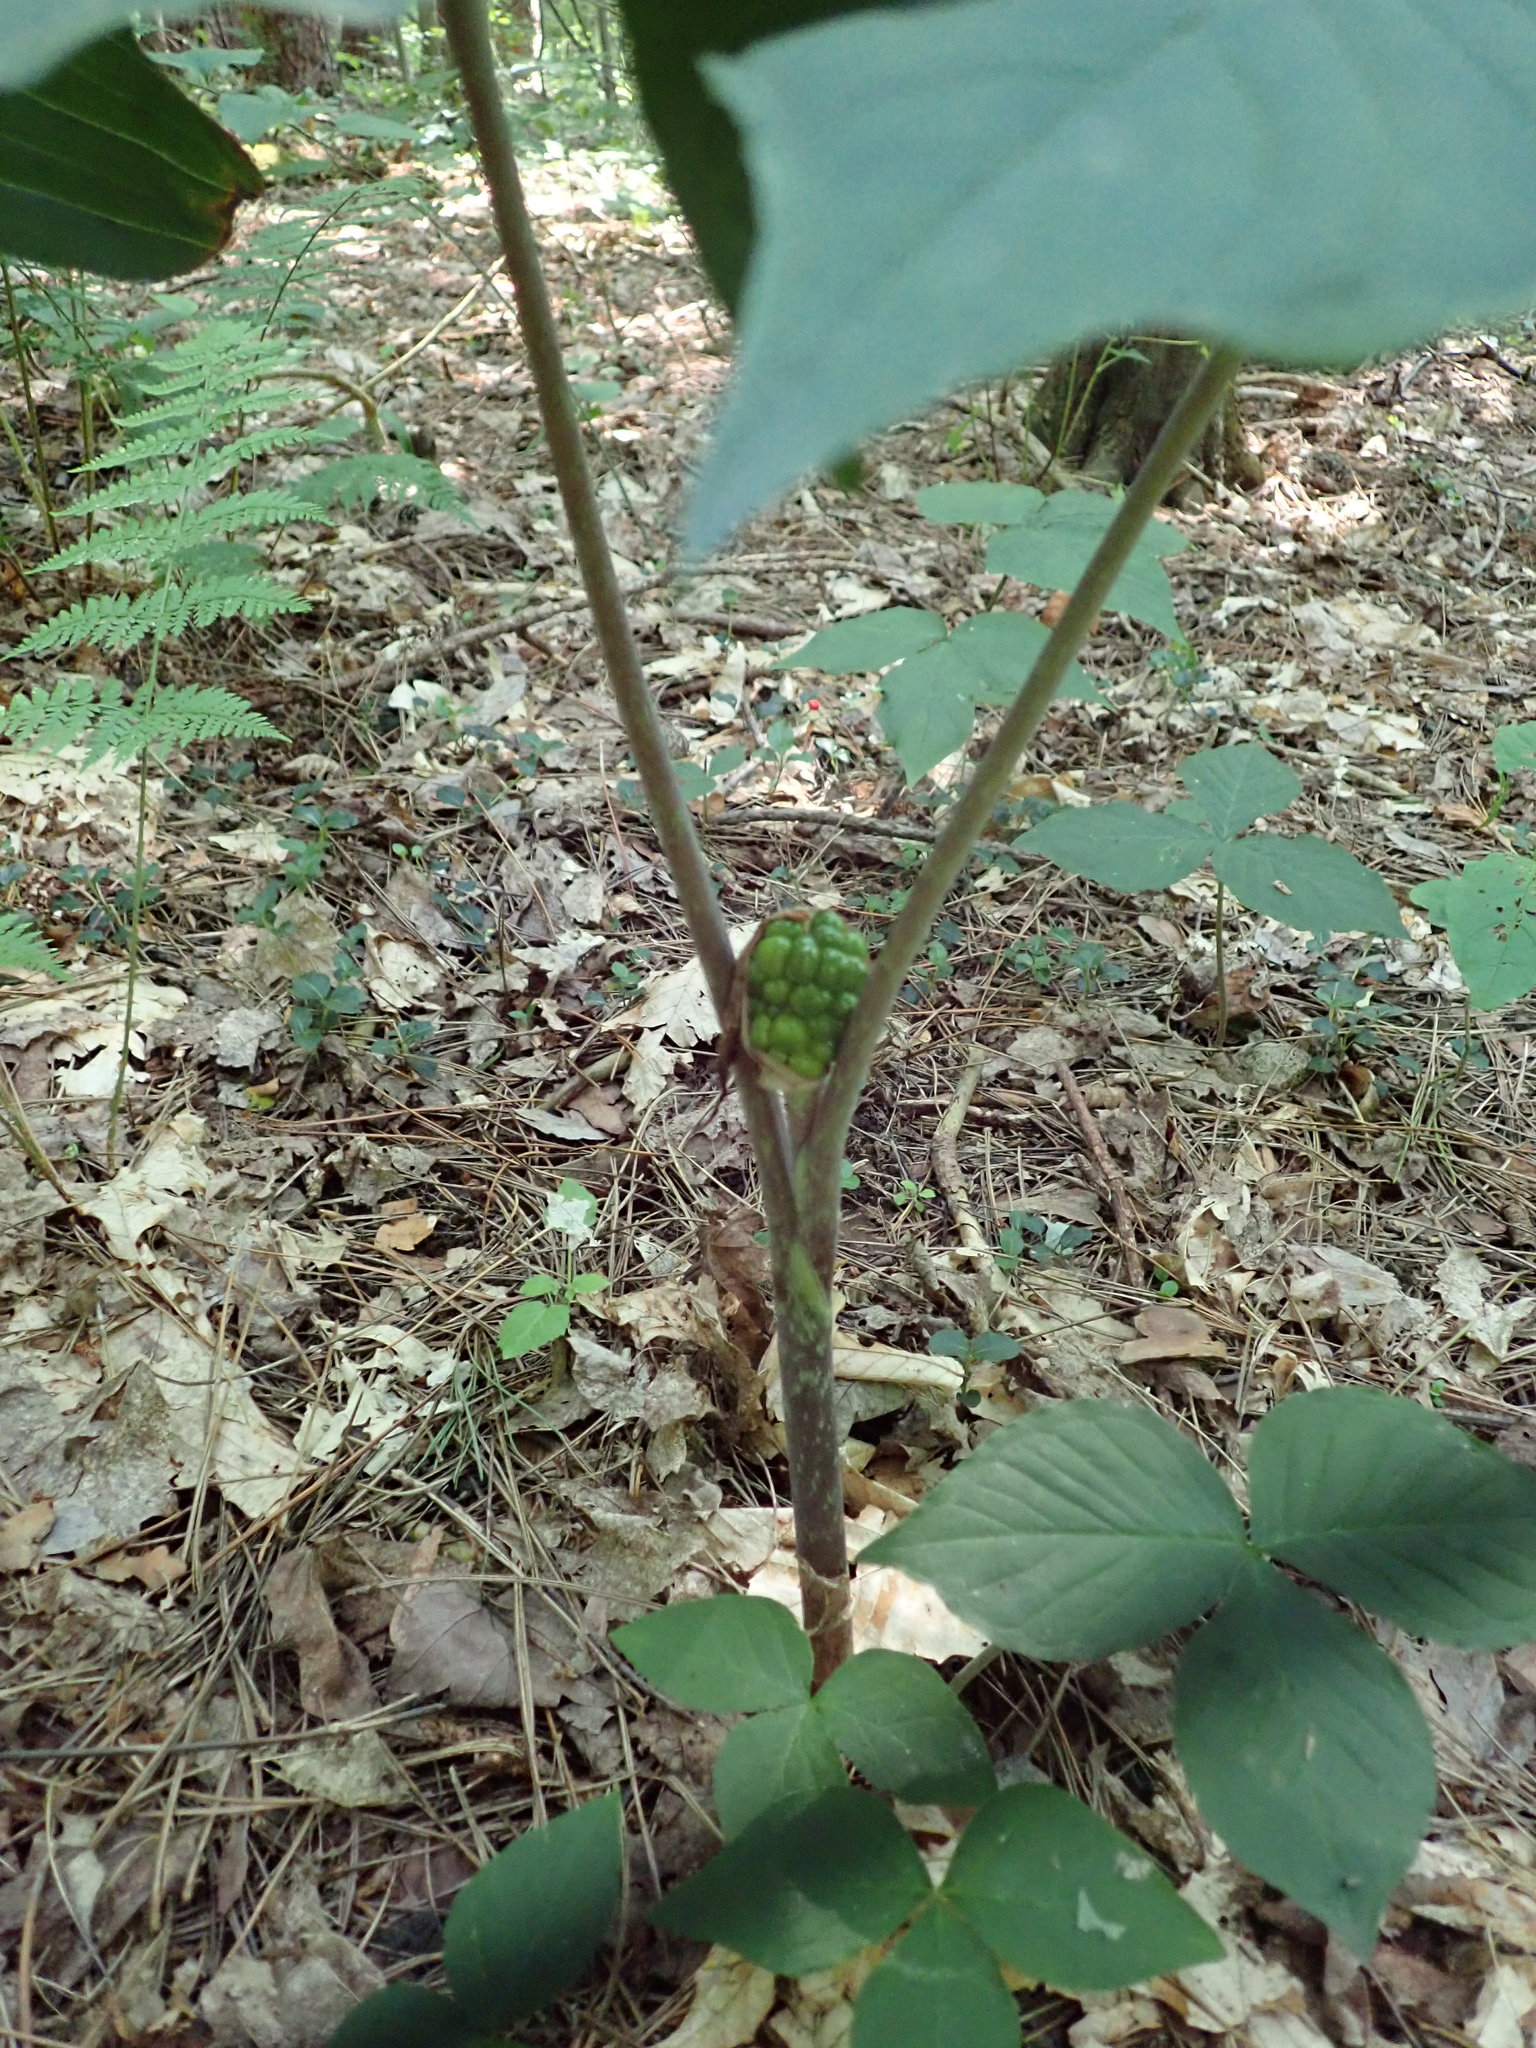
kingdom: Plantae
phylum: Tracheophyta
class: Liliopsida
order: Alismatales
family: Araceae
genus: Arisaema
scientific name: Arisaema triphyllum
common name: Jack-in-the-pulpit
